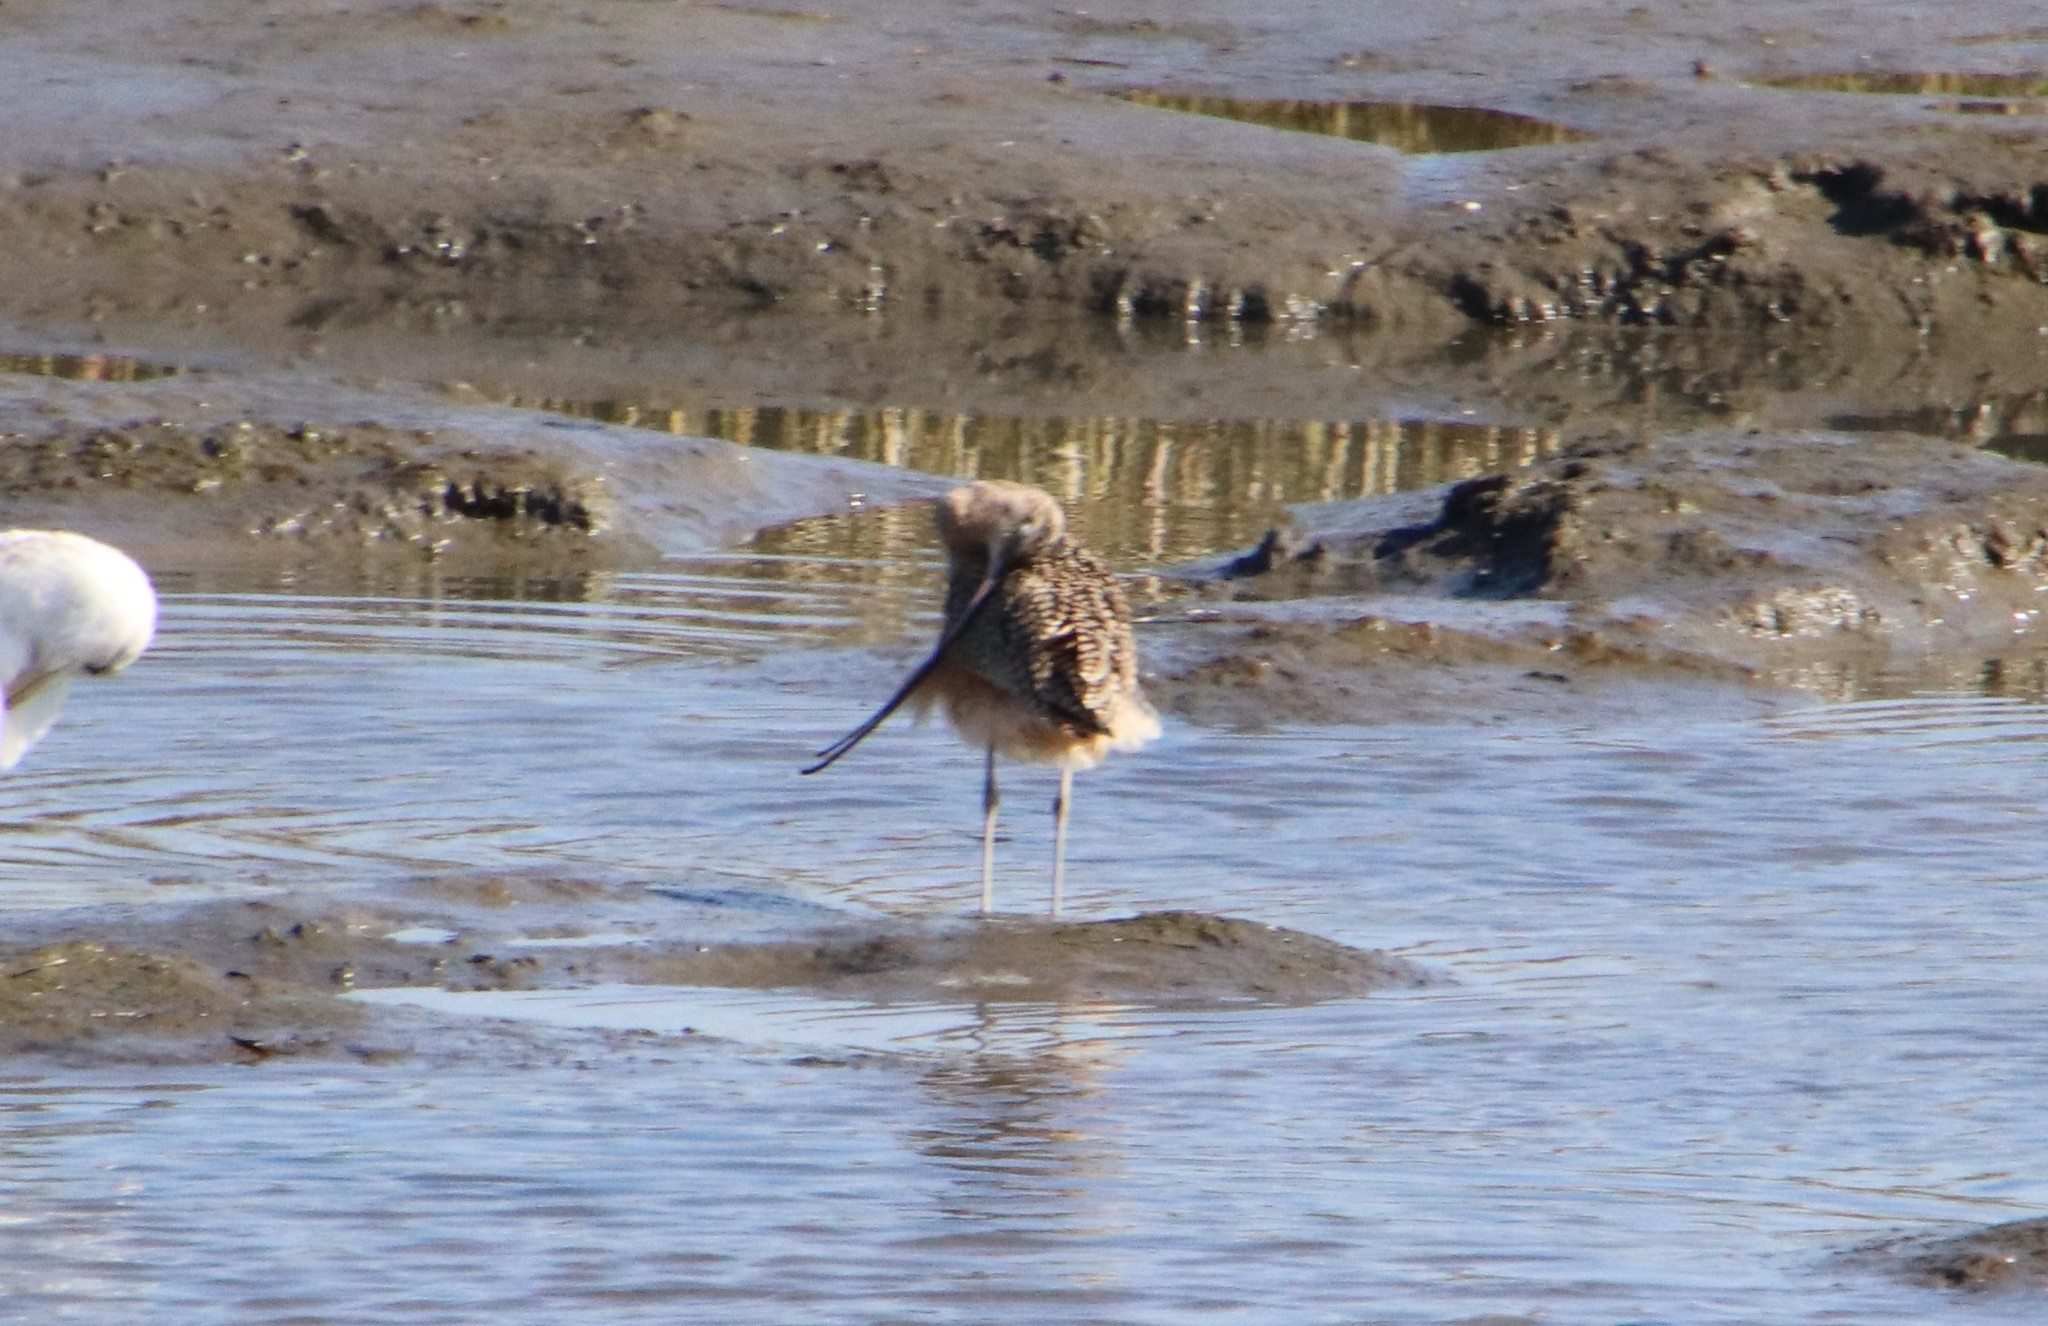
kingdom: Animalia
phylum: Chordata
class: Aves
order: Charadriiformes
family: Scolopacidae
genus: Numenius
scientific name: Numenius americanus
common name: Long-billed curlew
